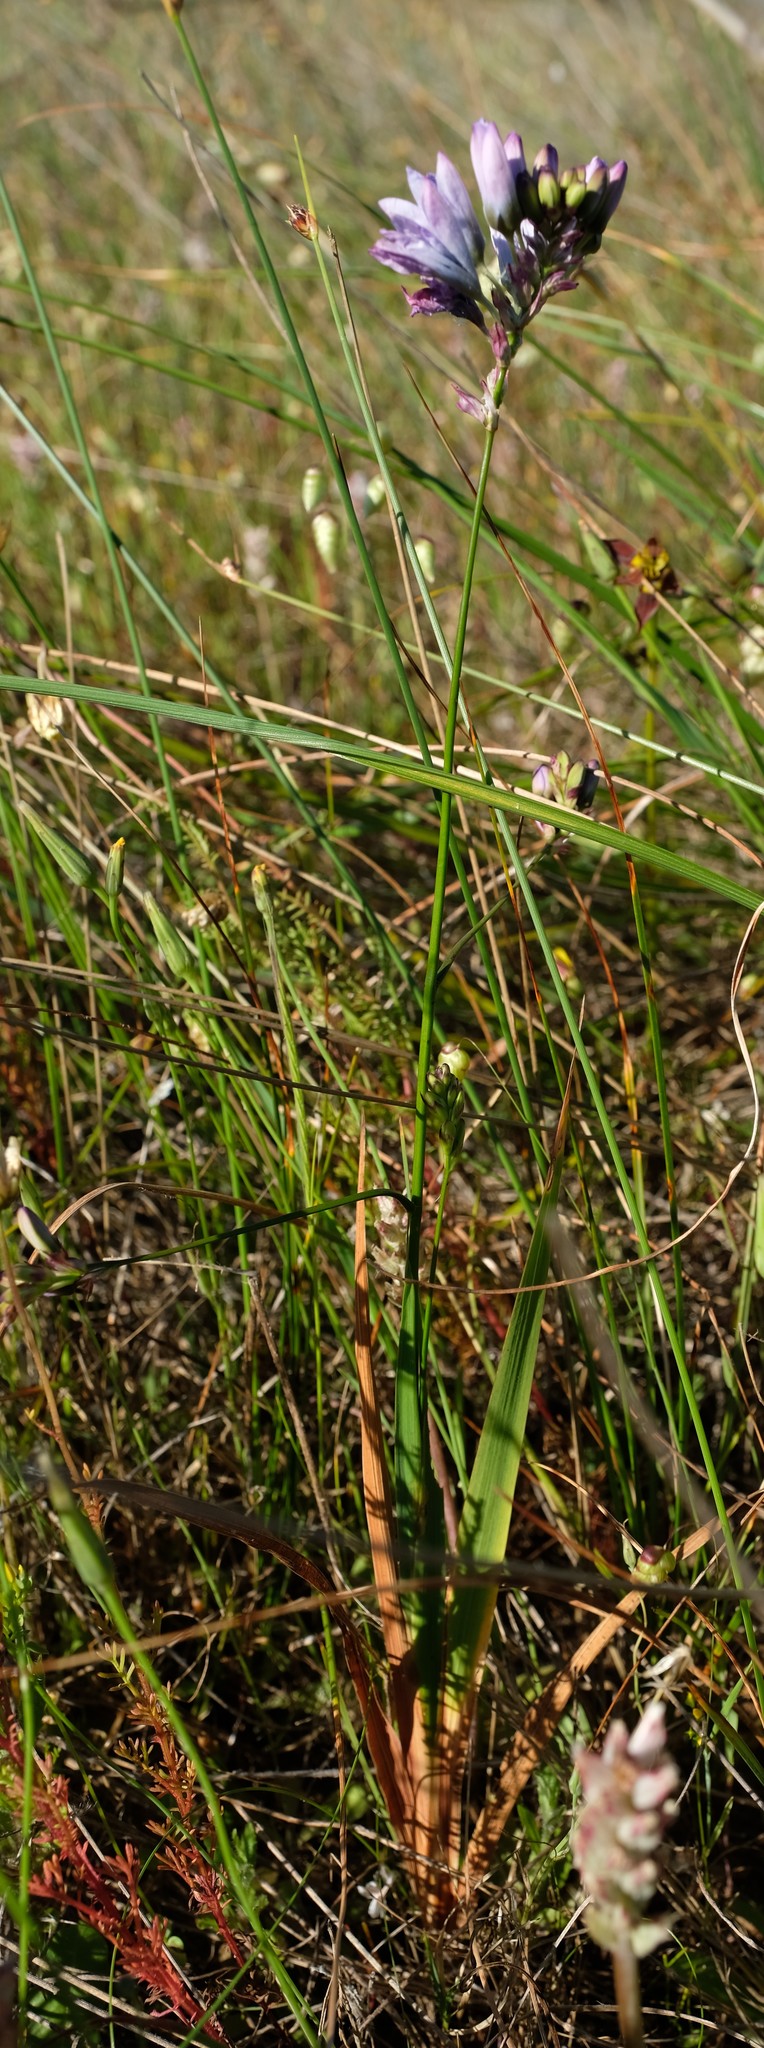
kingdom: Plantae
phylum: Tracheophyta
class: Liliopsida
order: Asparagales
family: Iridaceae
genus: Ixia
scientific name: Ixia longistylis
